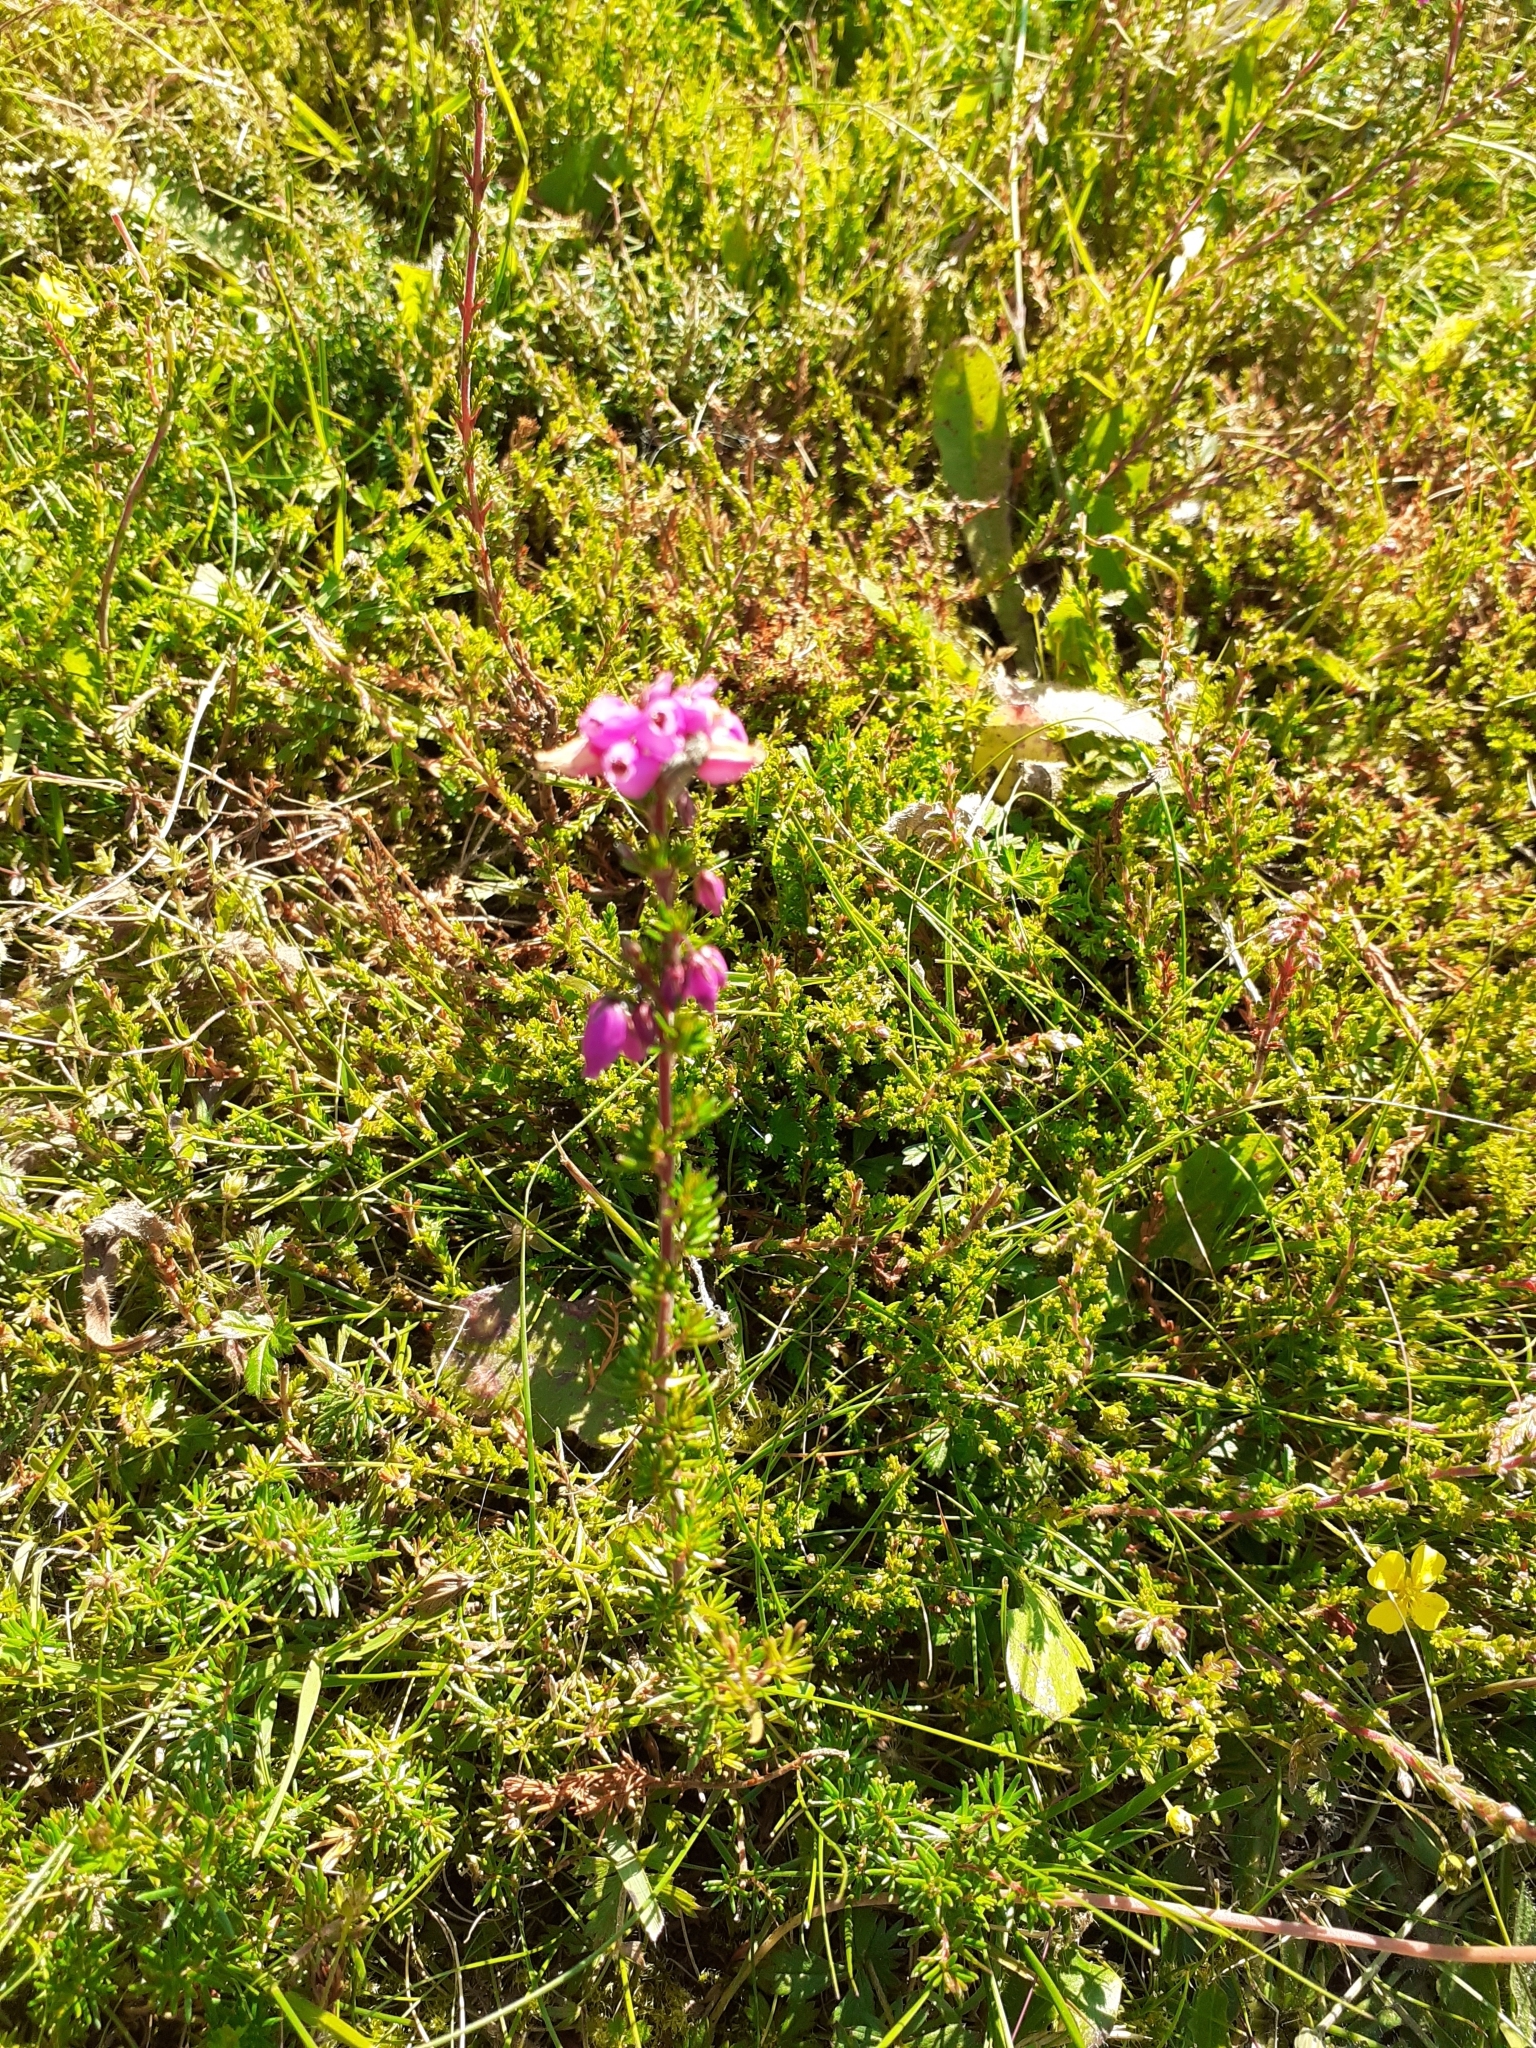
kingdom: Plantae
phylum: Tracheophyta
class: Magnoliopsida
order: Ericales
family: Ericaceae
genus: Erica
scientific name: Erica cinerea
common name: Bell heather
